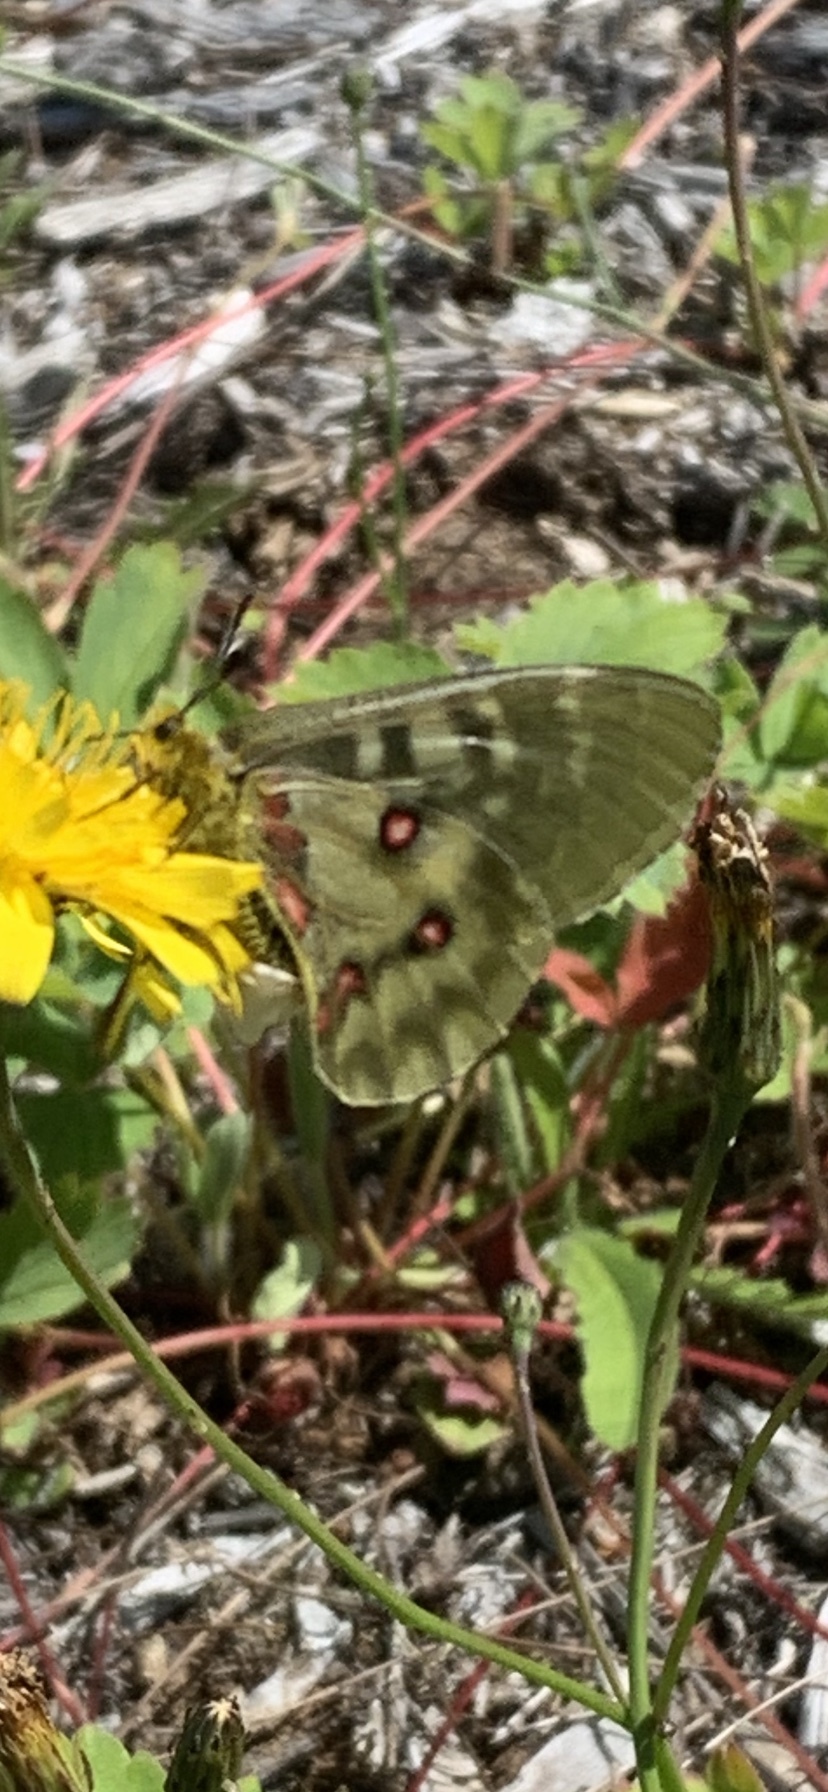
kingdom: Animalia
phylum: Arthropoda
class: Insecta
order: Lepidoptera
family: Papilionidae
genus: Parnassius
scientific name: Parnassius clodius
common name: American apollo
